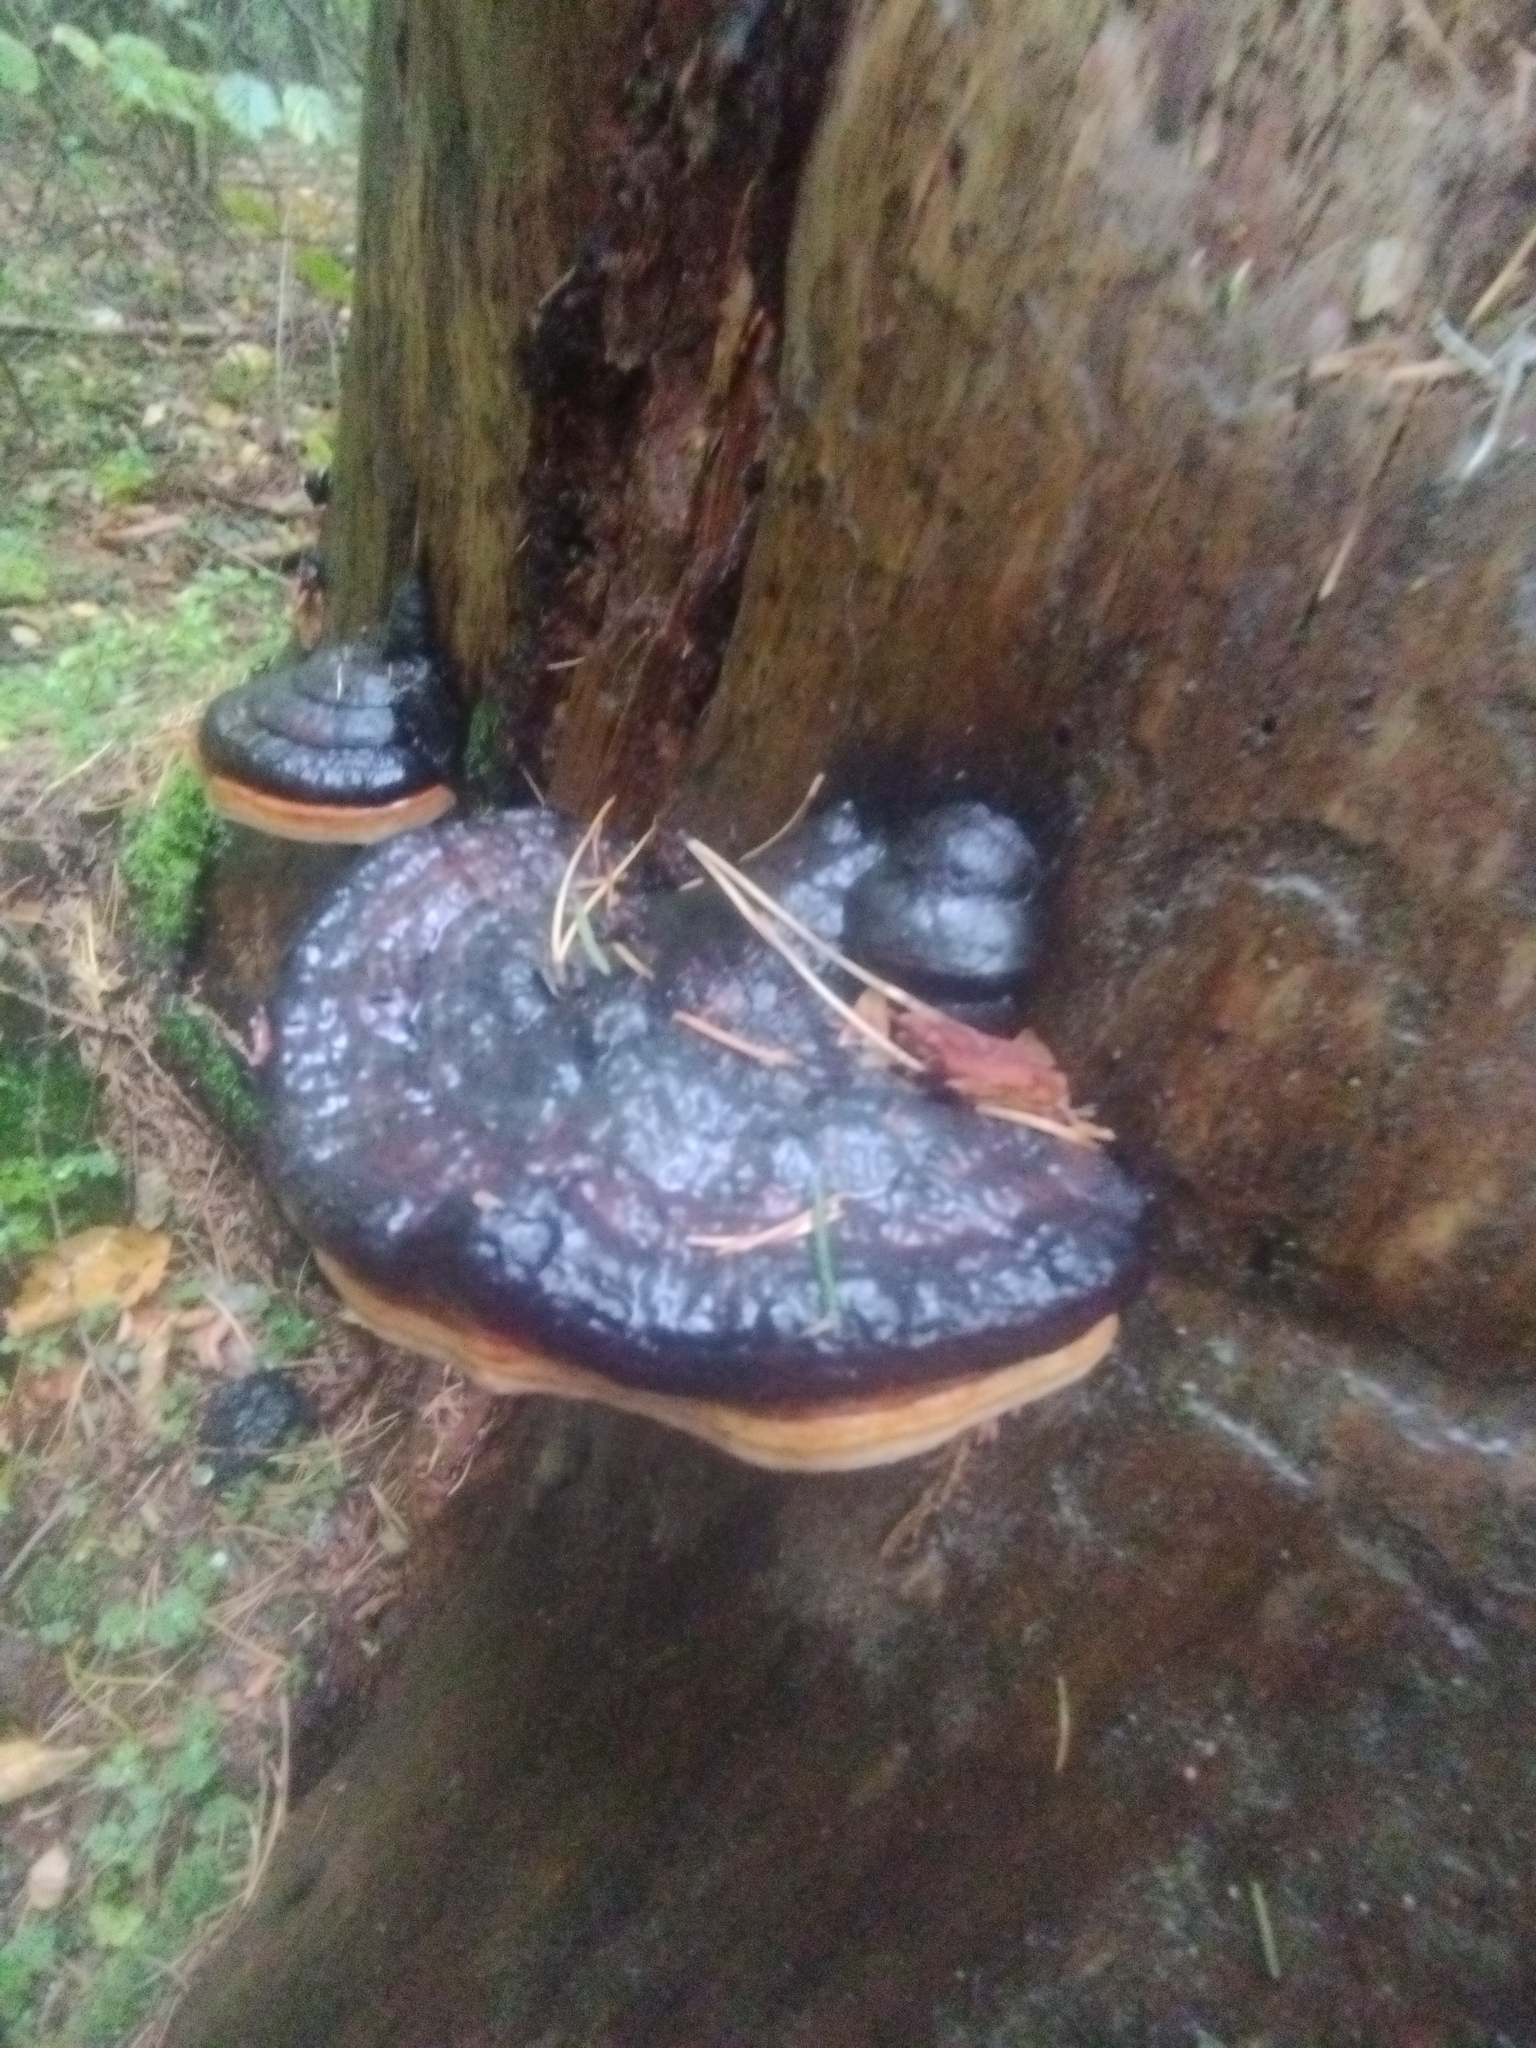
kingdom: Fungi
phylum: Basidiomycota
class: Agaricomycetes
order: Polyporales
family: Fomitopsidaceae
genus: Fomitopsis
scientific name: Fomitopsis pinicola
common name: Red-belted bracket
